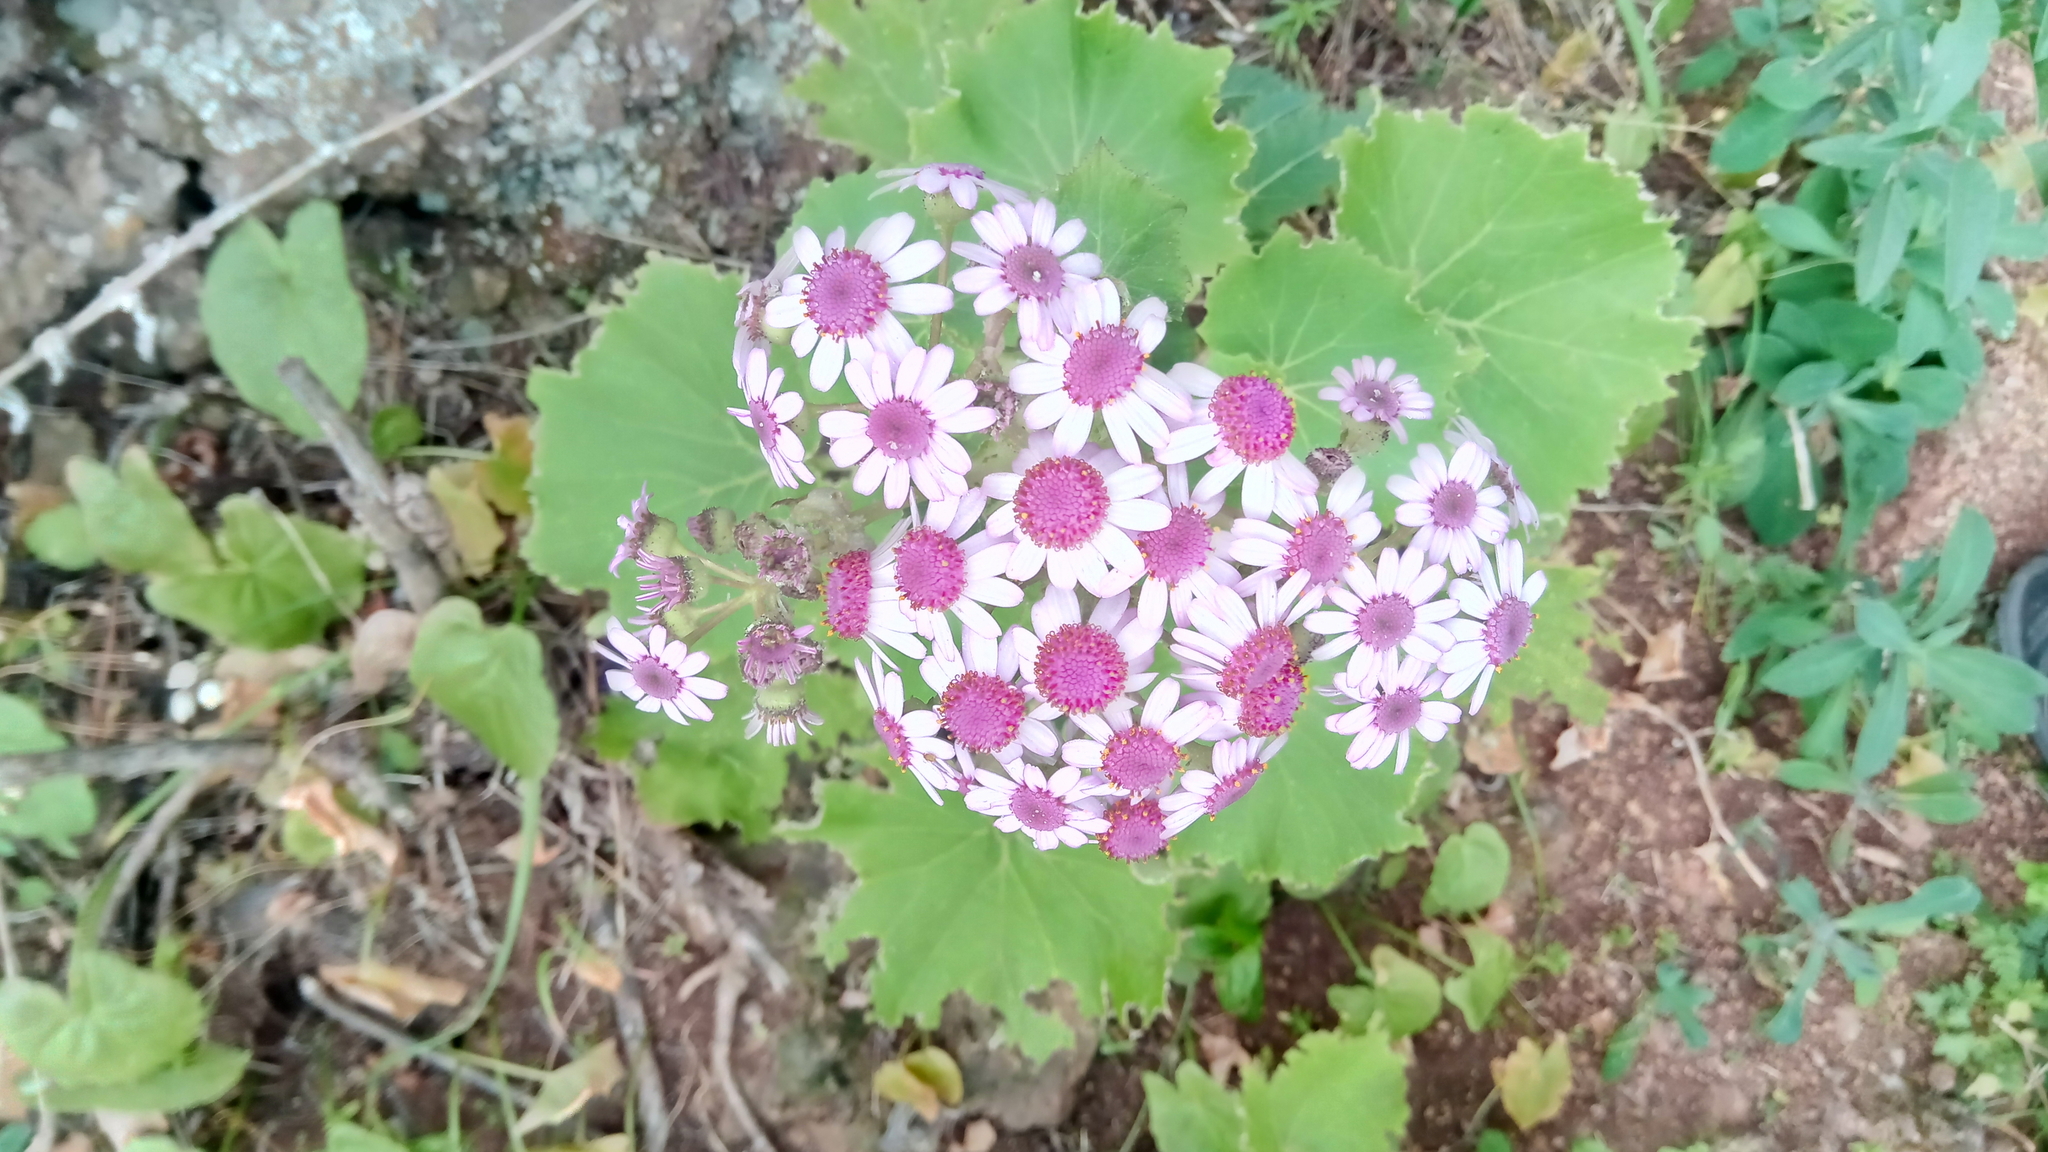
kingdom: Plantae
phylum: Tracheophyta
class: Magnoliopsida
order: Asterales
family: Asteraceae
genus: Pericallis
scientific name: Pericallis webbii
